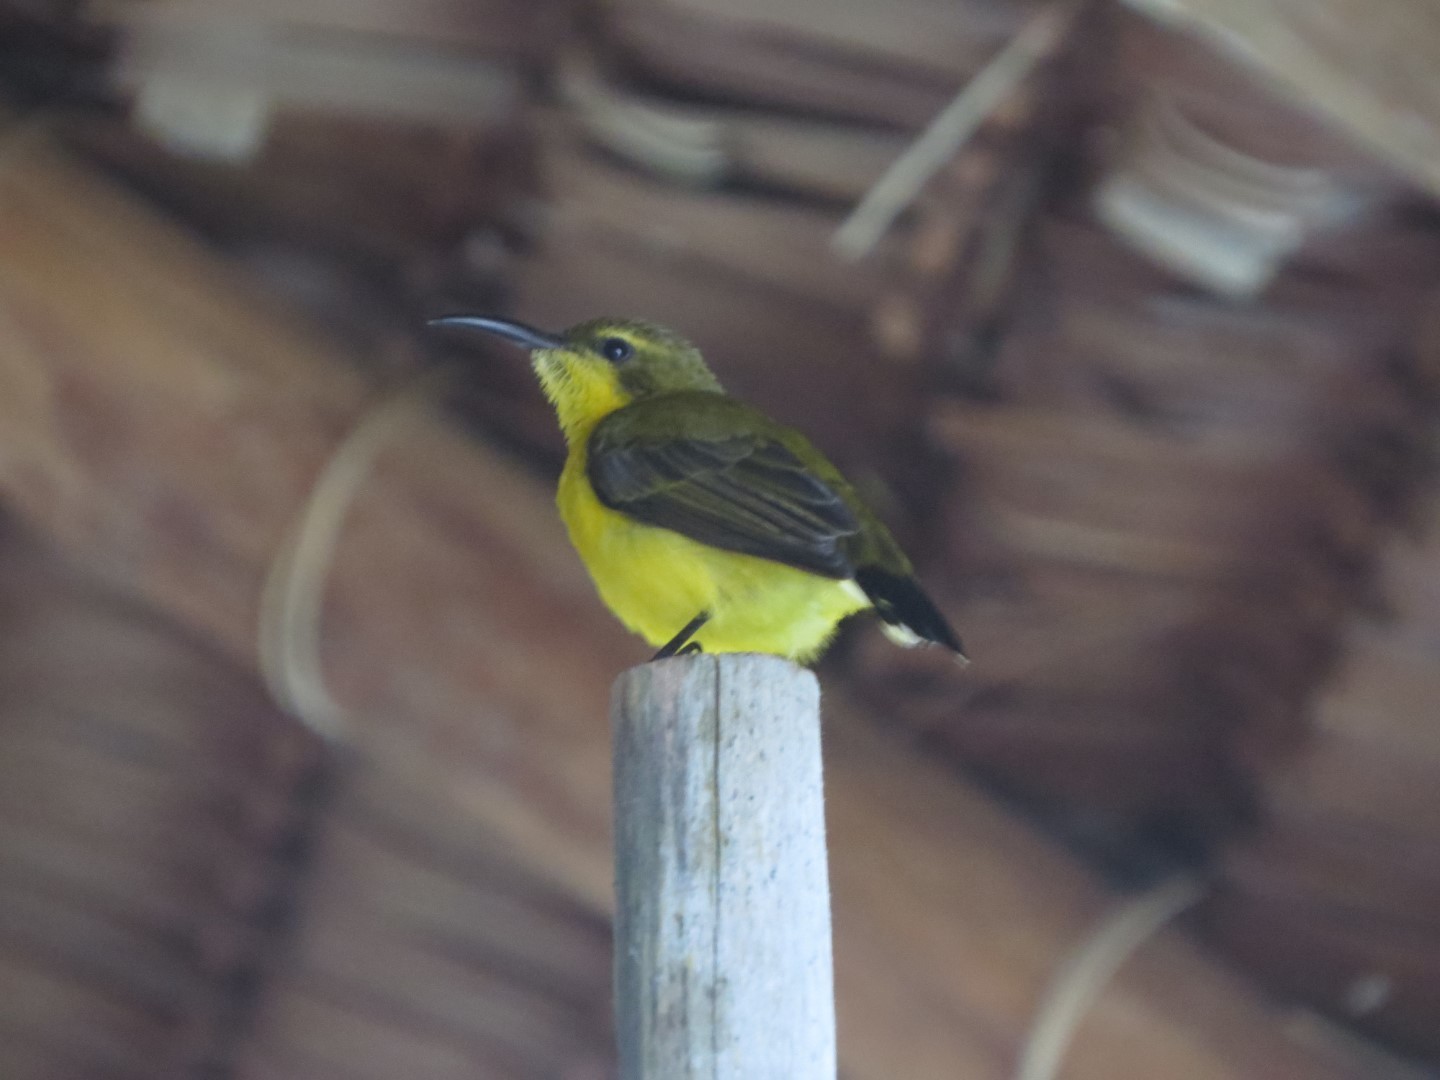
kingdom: Animalia
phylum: Chordata
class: Aves
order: Passeriformes
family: Nectariniidae
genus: Cinnyris
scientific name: Cinnyris
